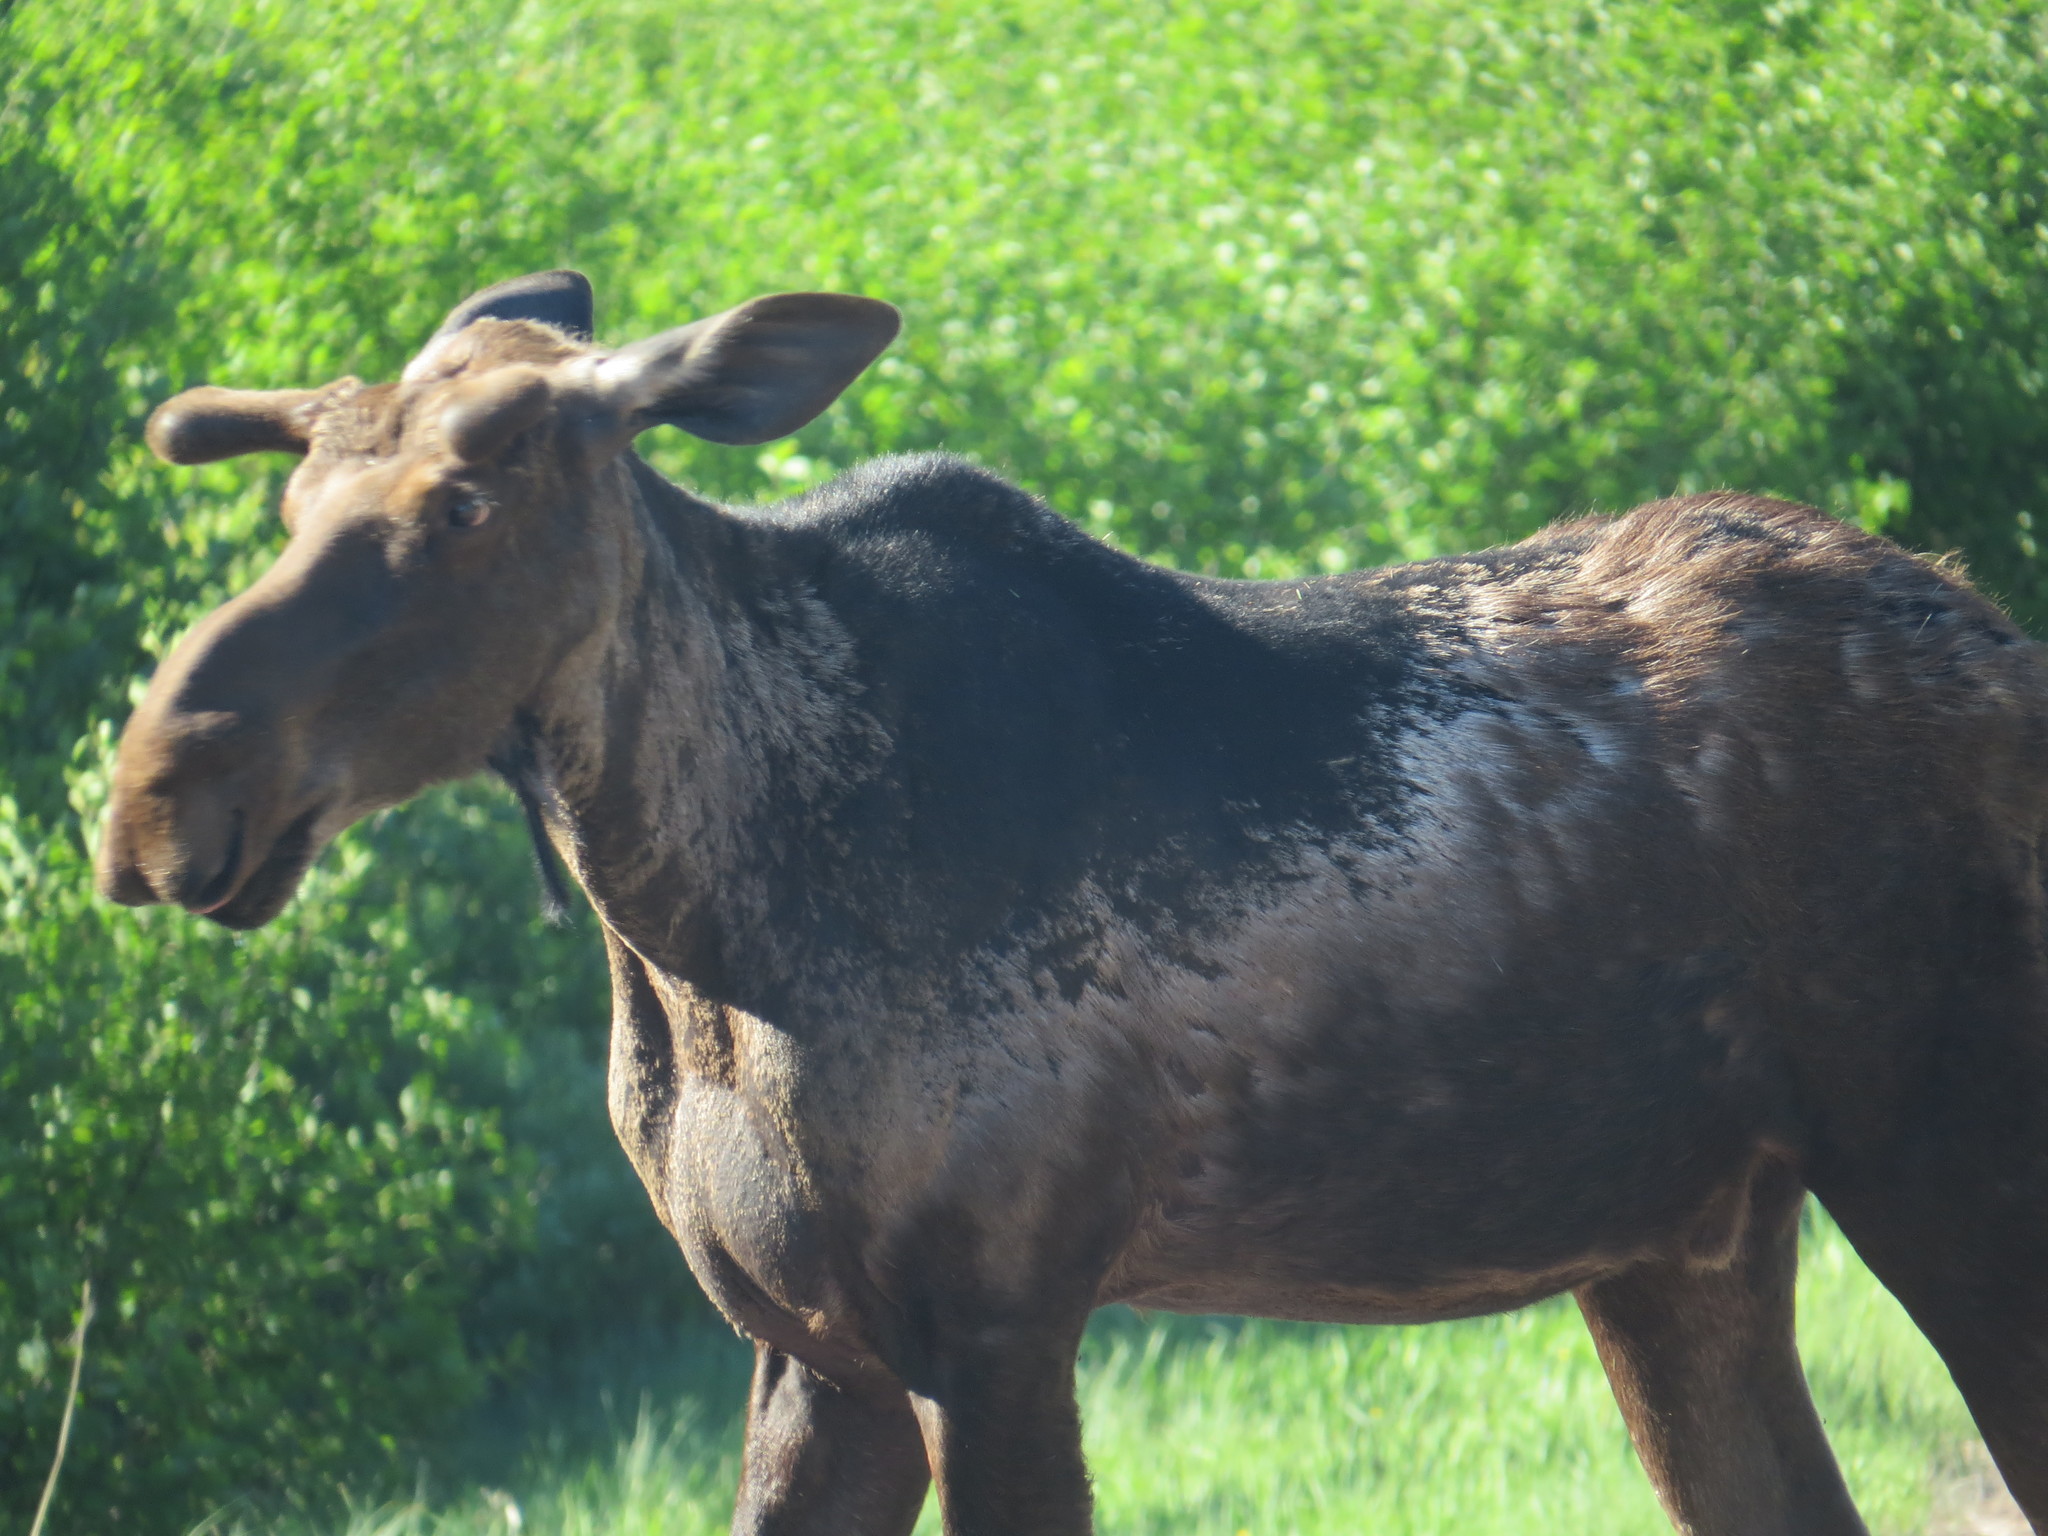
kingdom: Animalia
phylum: Chordata
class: Mammalia
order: Artiodactyla
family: Cervidae
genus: Alces
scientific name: Alces alces
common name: Moose
